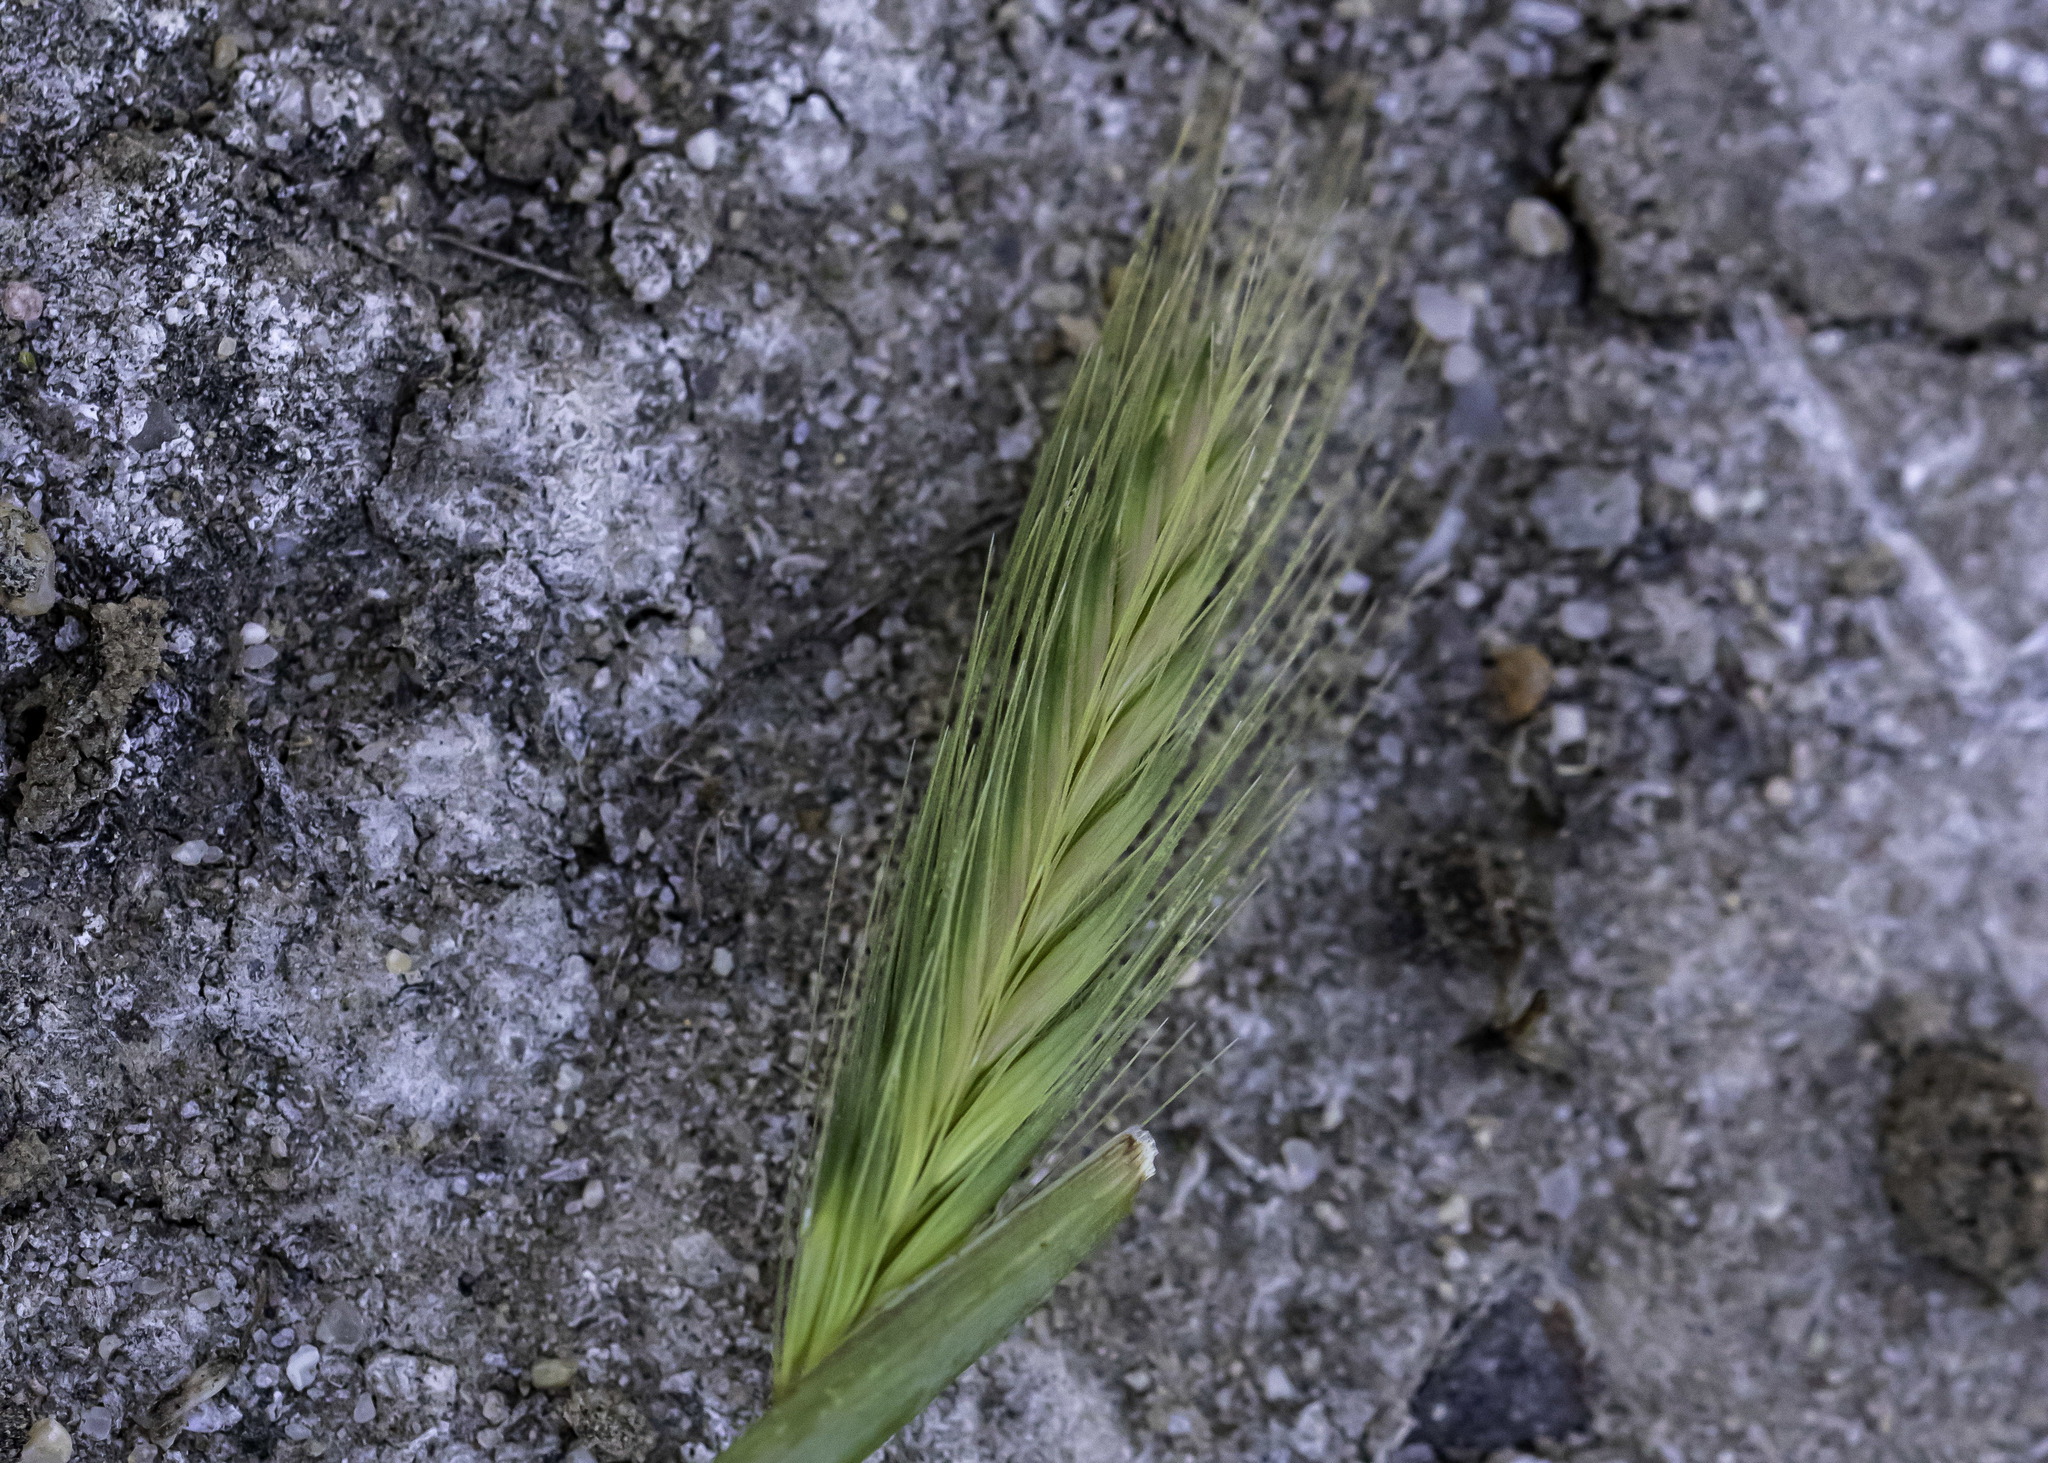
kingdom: Plantae
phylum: Tracheophyta
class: Liliopsida
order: Poales
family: Poaceae
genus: Hordeum
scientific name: Hordeum murinum
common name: Wall barley
